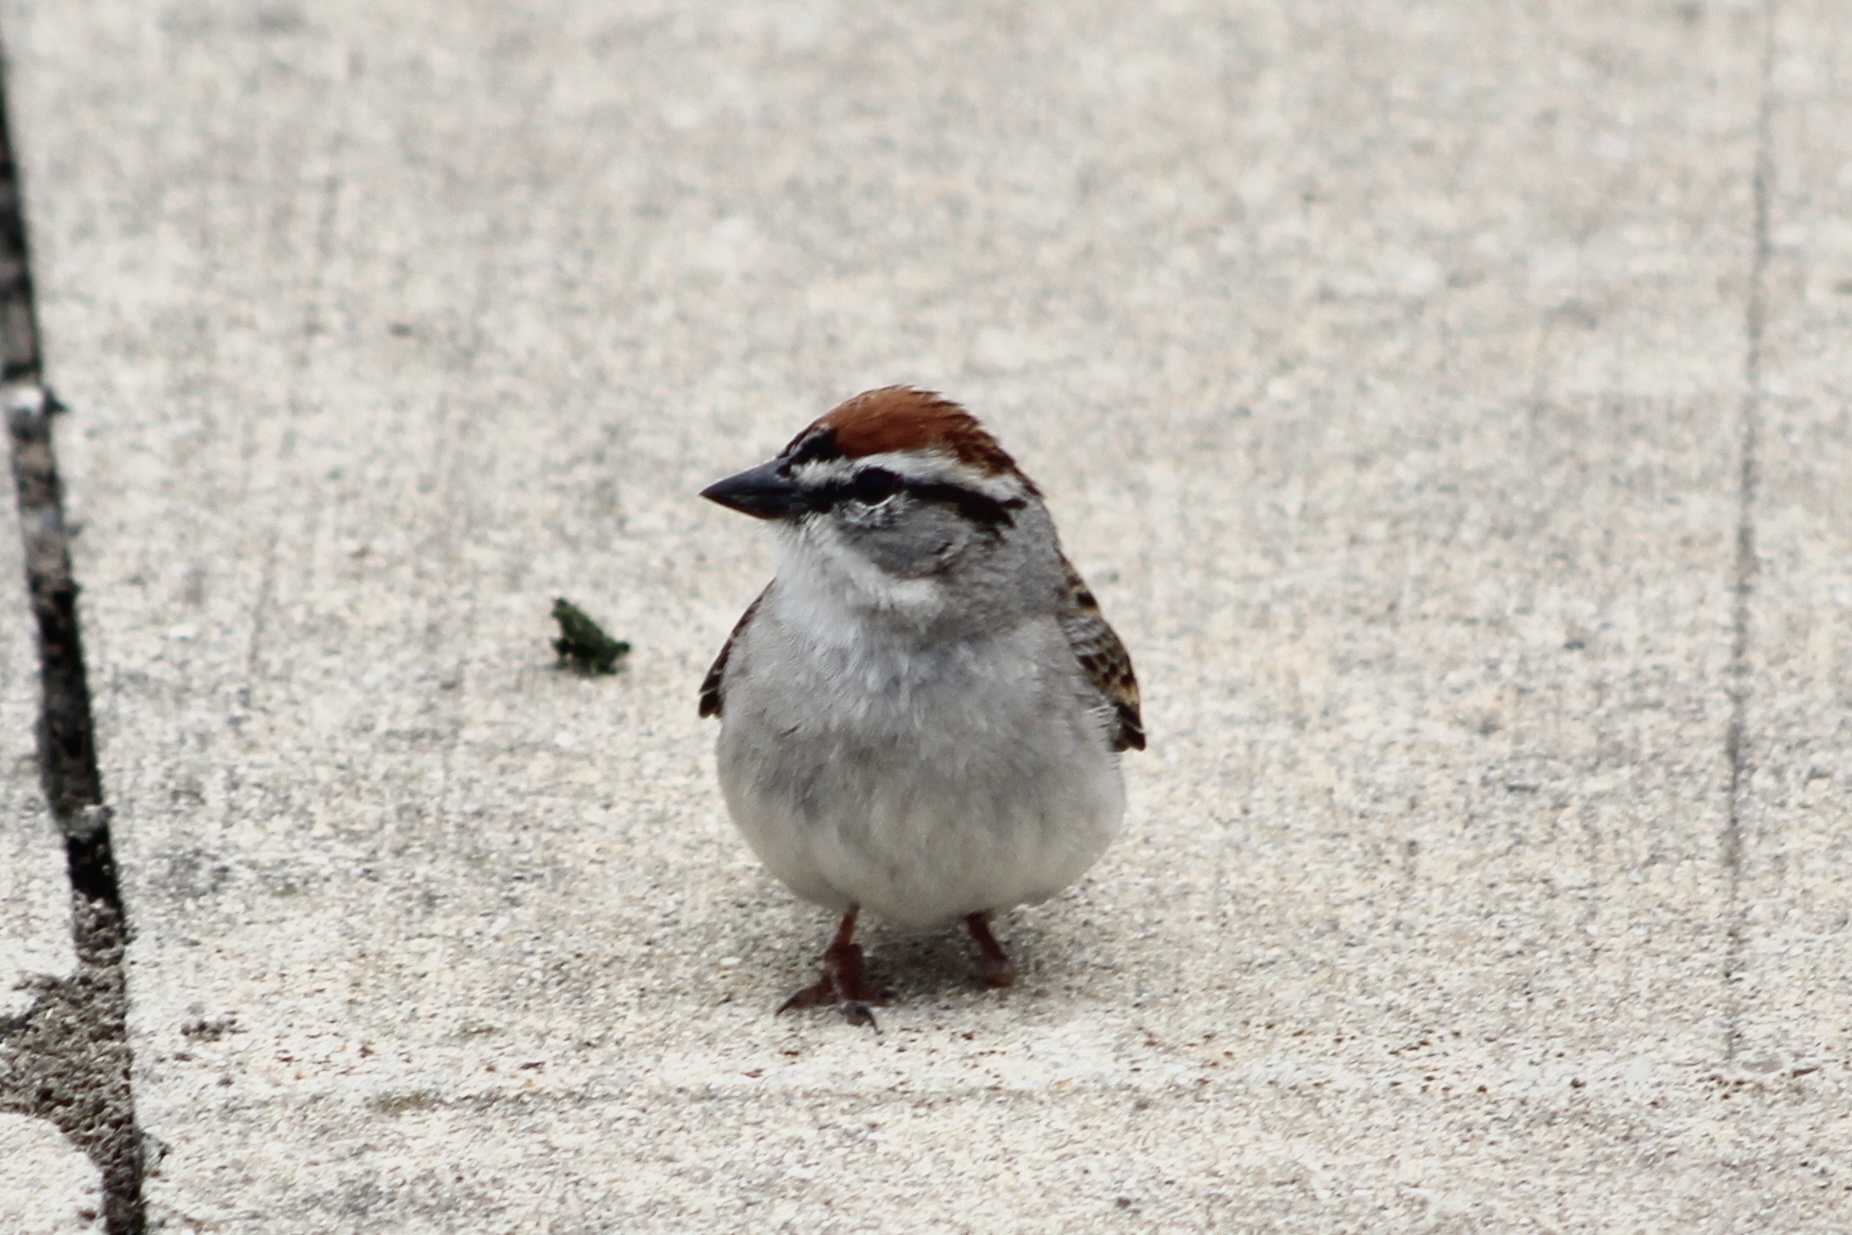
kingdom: Animalia
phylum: Chordata
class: Aves
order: Passeriformes
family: Passerellidae
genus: Spizella
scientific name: Spizella passerina
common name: Chipping sparrow
